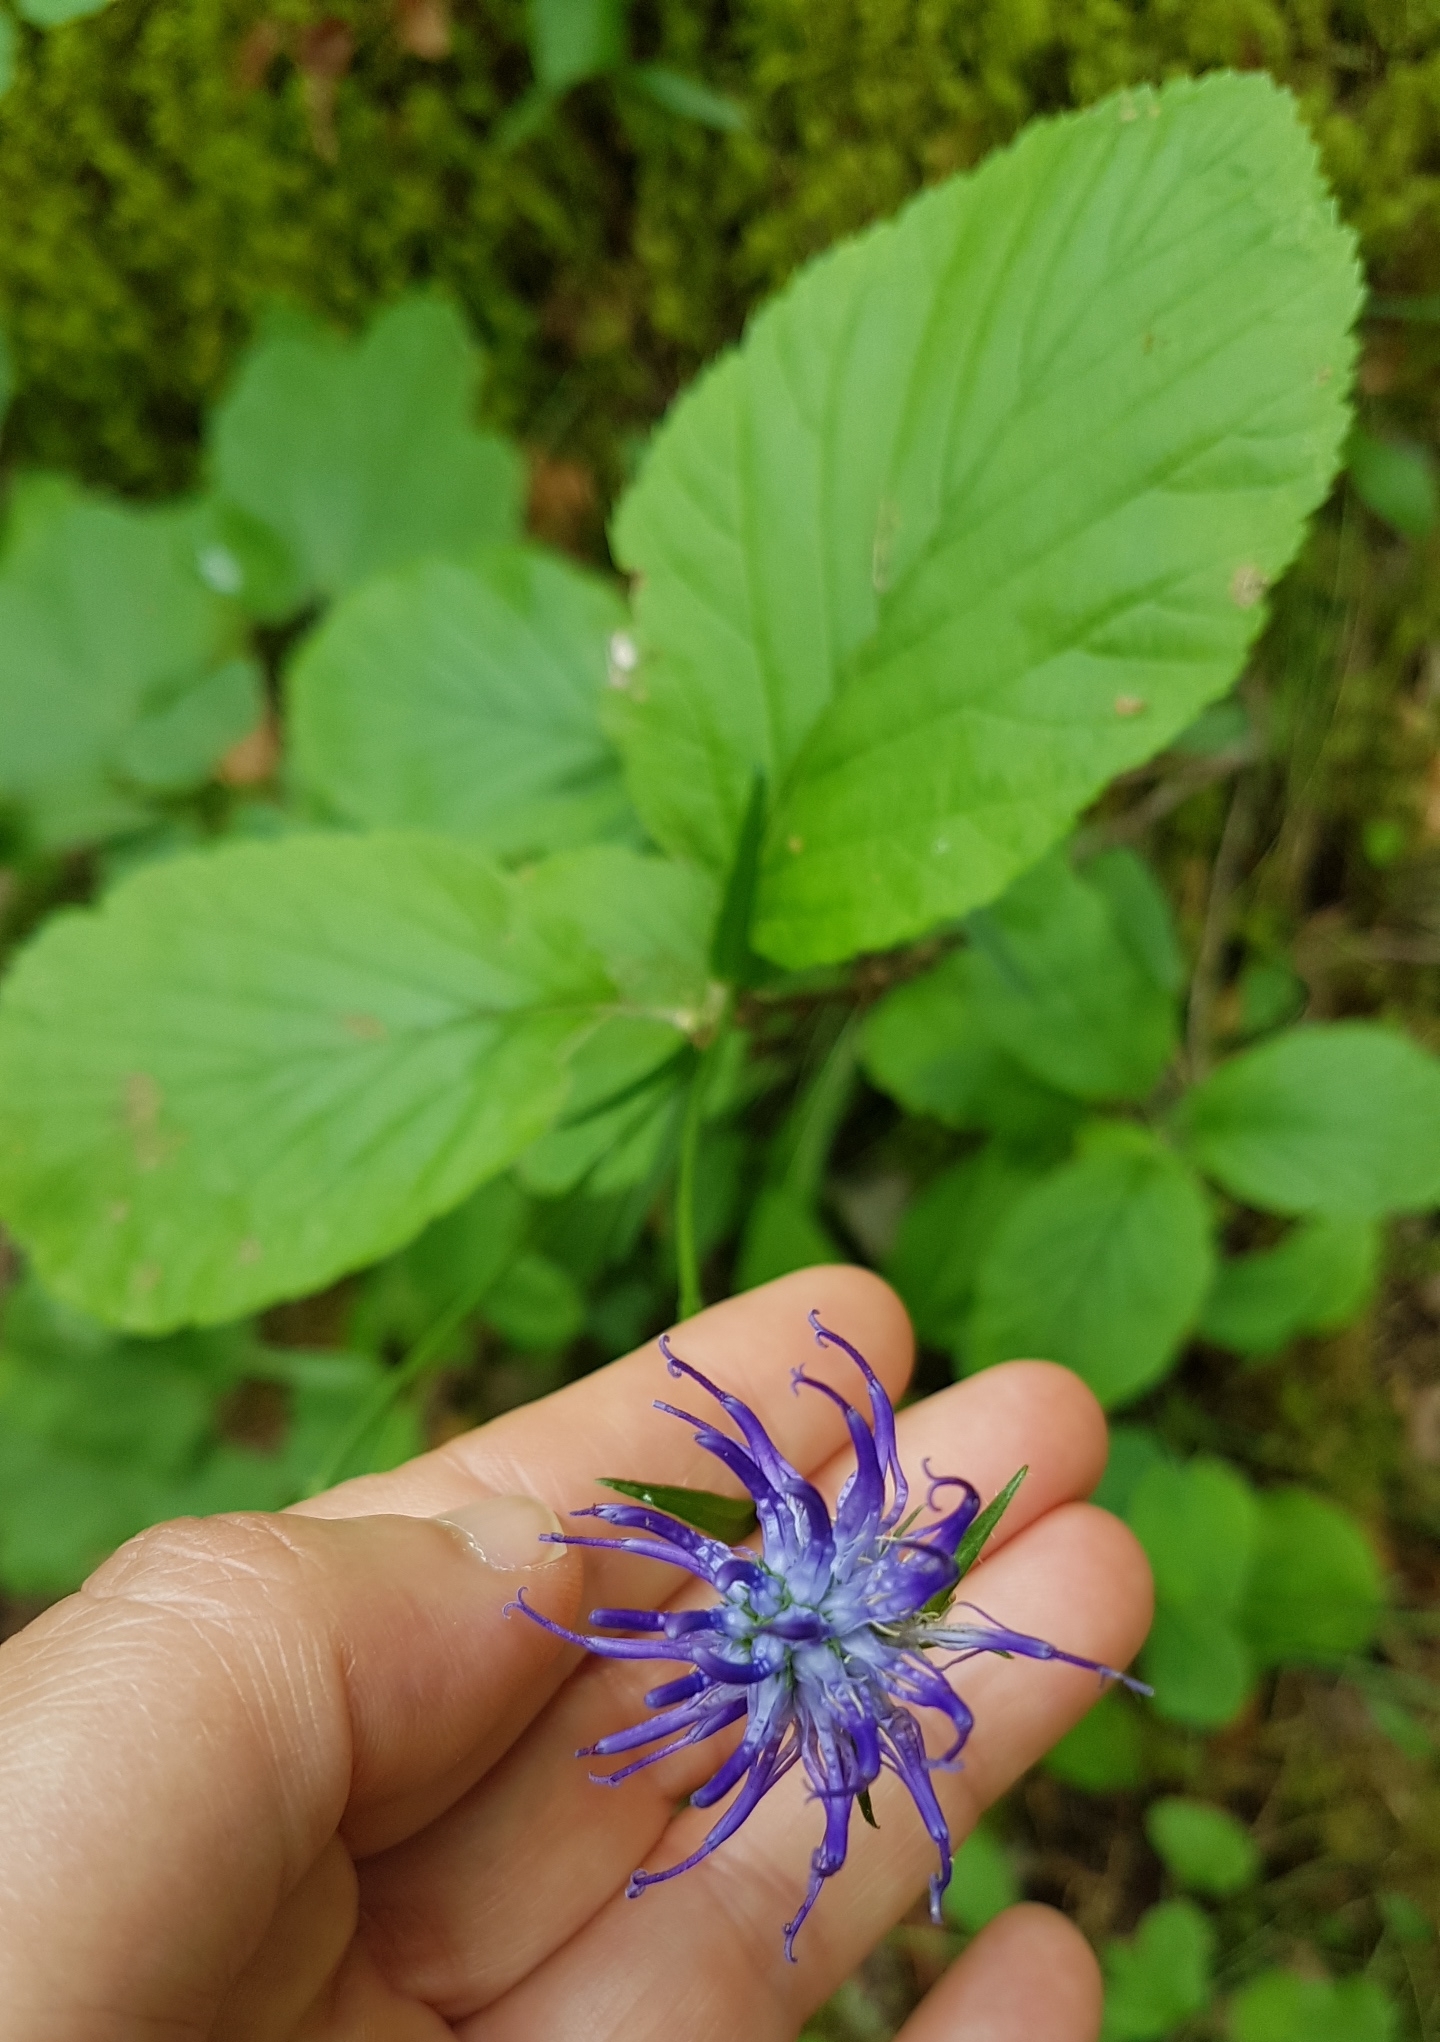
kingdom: Plantae
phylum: Tracheophyta
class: Magnoliopsida
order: Asterales
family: Campanulaceae
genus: Phyteuma
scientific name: Phyteuma orbiculare
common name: Round-headed rampion
